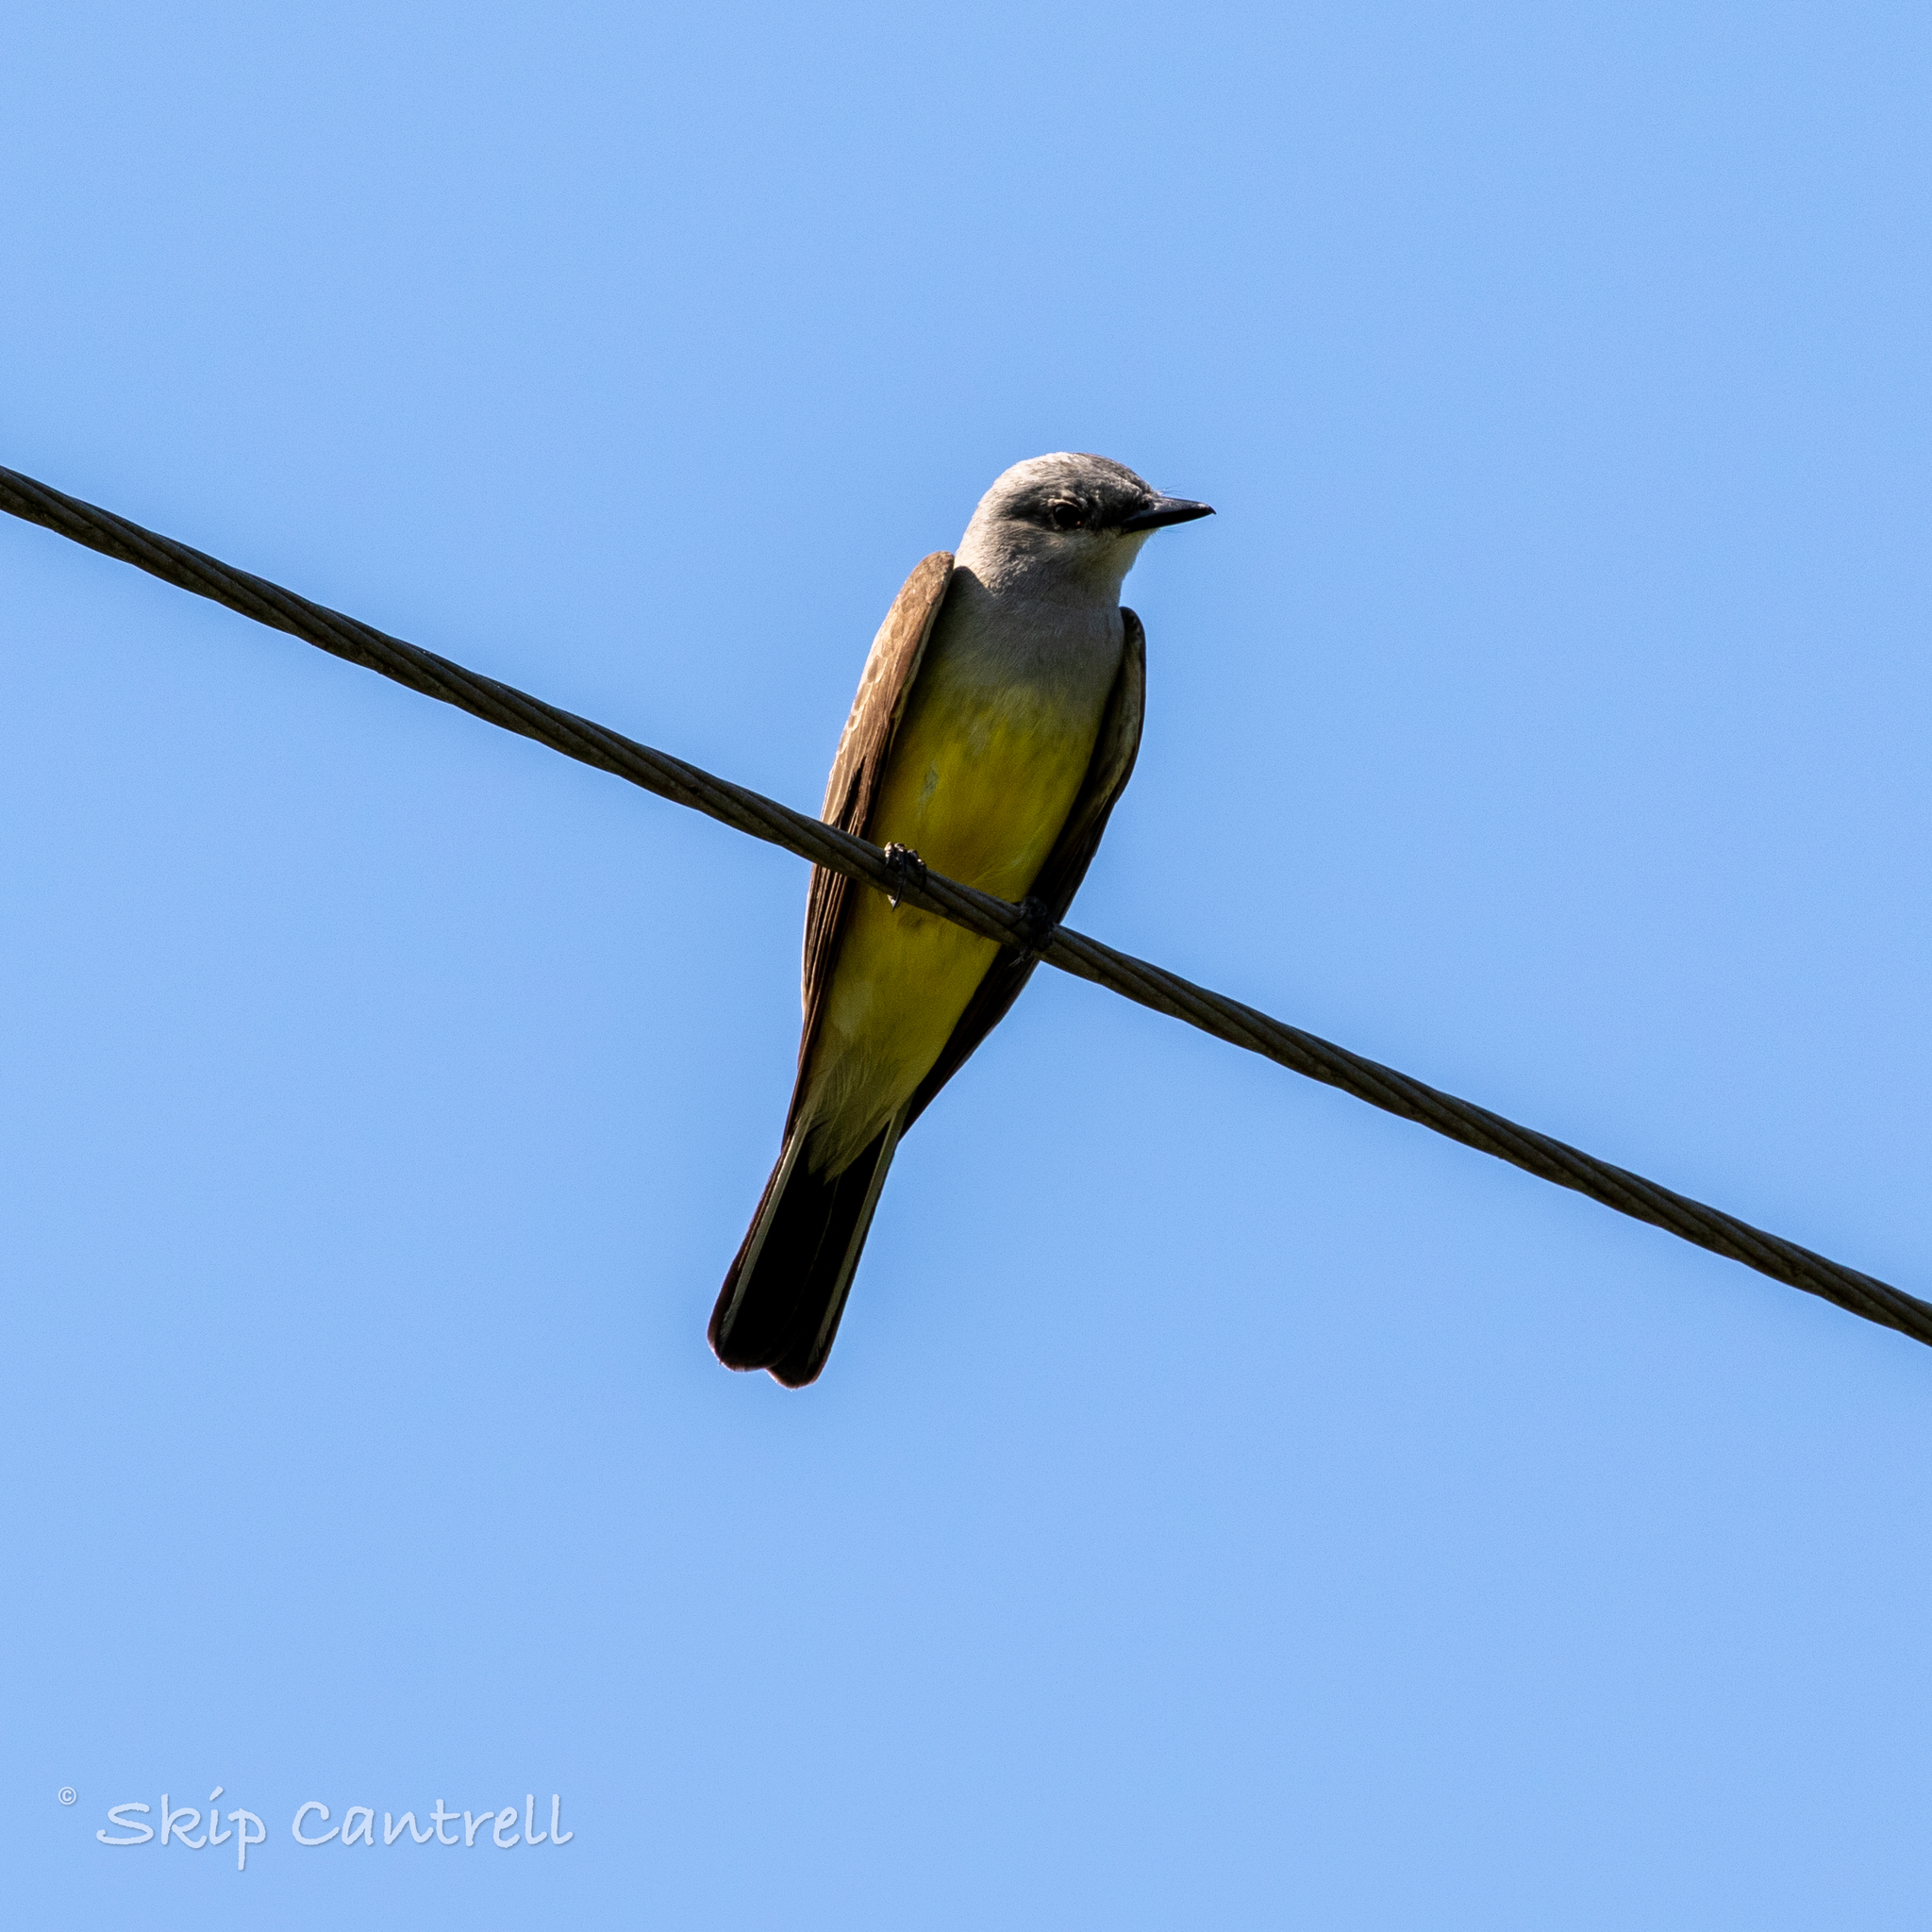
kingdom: Animalia
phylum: Chordata
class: Aves
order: Passeriformes
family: Tyrannidae
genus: Tyrannus
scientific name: Tyrannus verticalis
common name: Western kingbird
